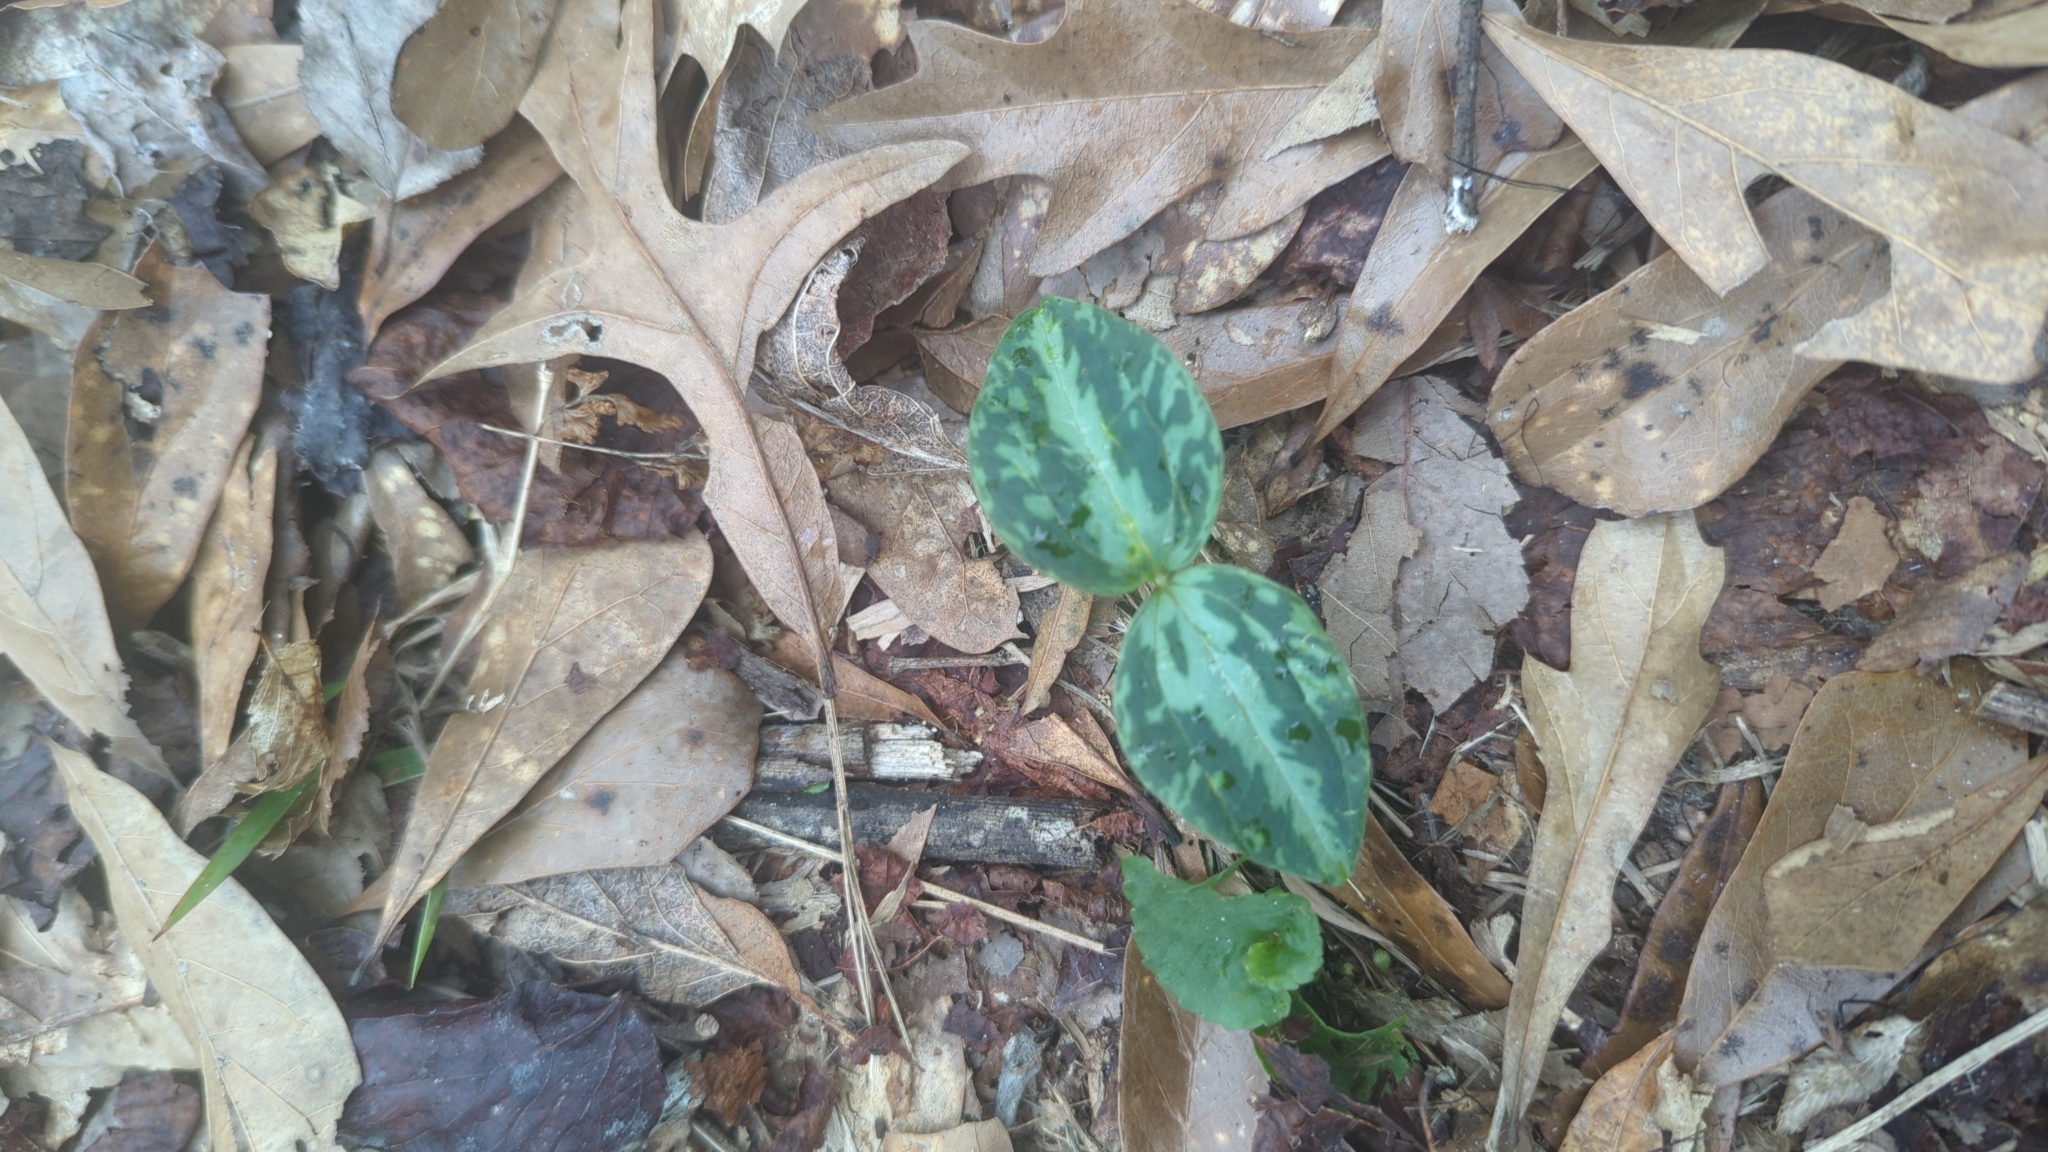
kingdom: Plantae
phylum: Tracheophyta
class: Liliopsida
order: Liliales
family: Melanthiaceae
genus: Trillium
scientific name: Trillium foetidissimum
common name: Mississippi river trillium
